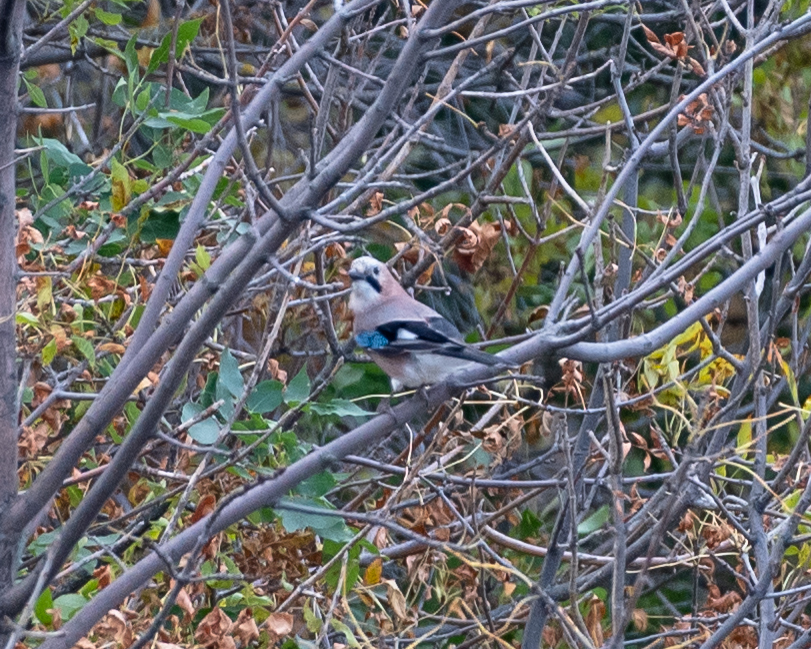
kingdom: Animalia
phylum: Chordata
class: Aves
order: Passeriformes
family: Corvidae
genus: Garrulus
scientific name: Garrulus glandarius
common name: Eurasian jay
